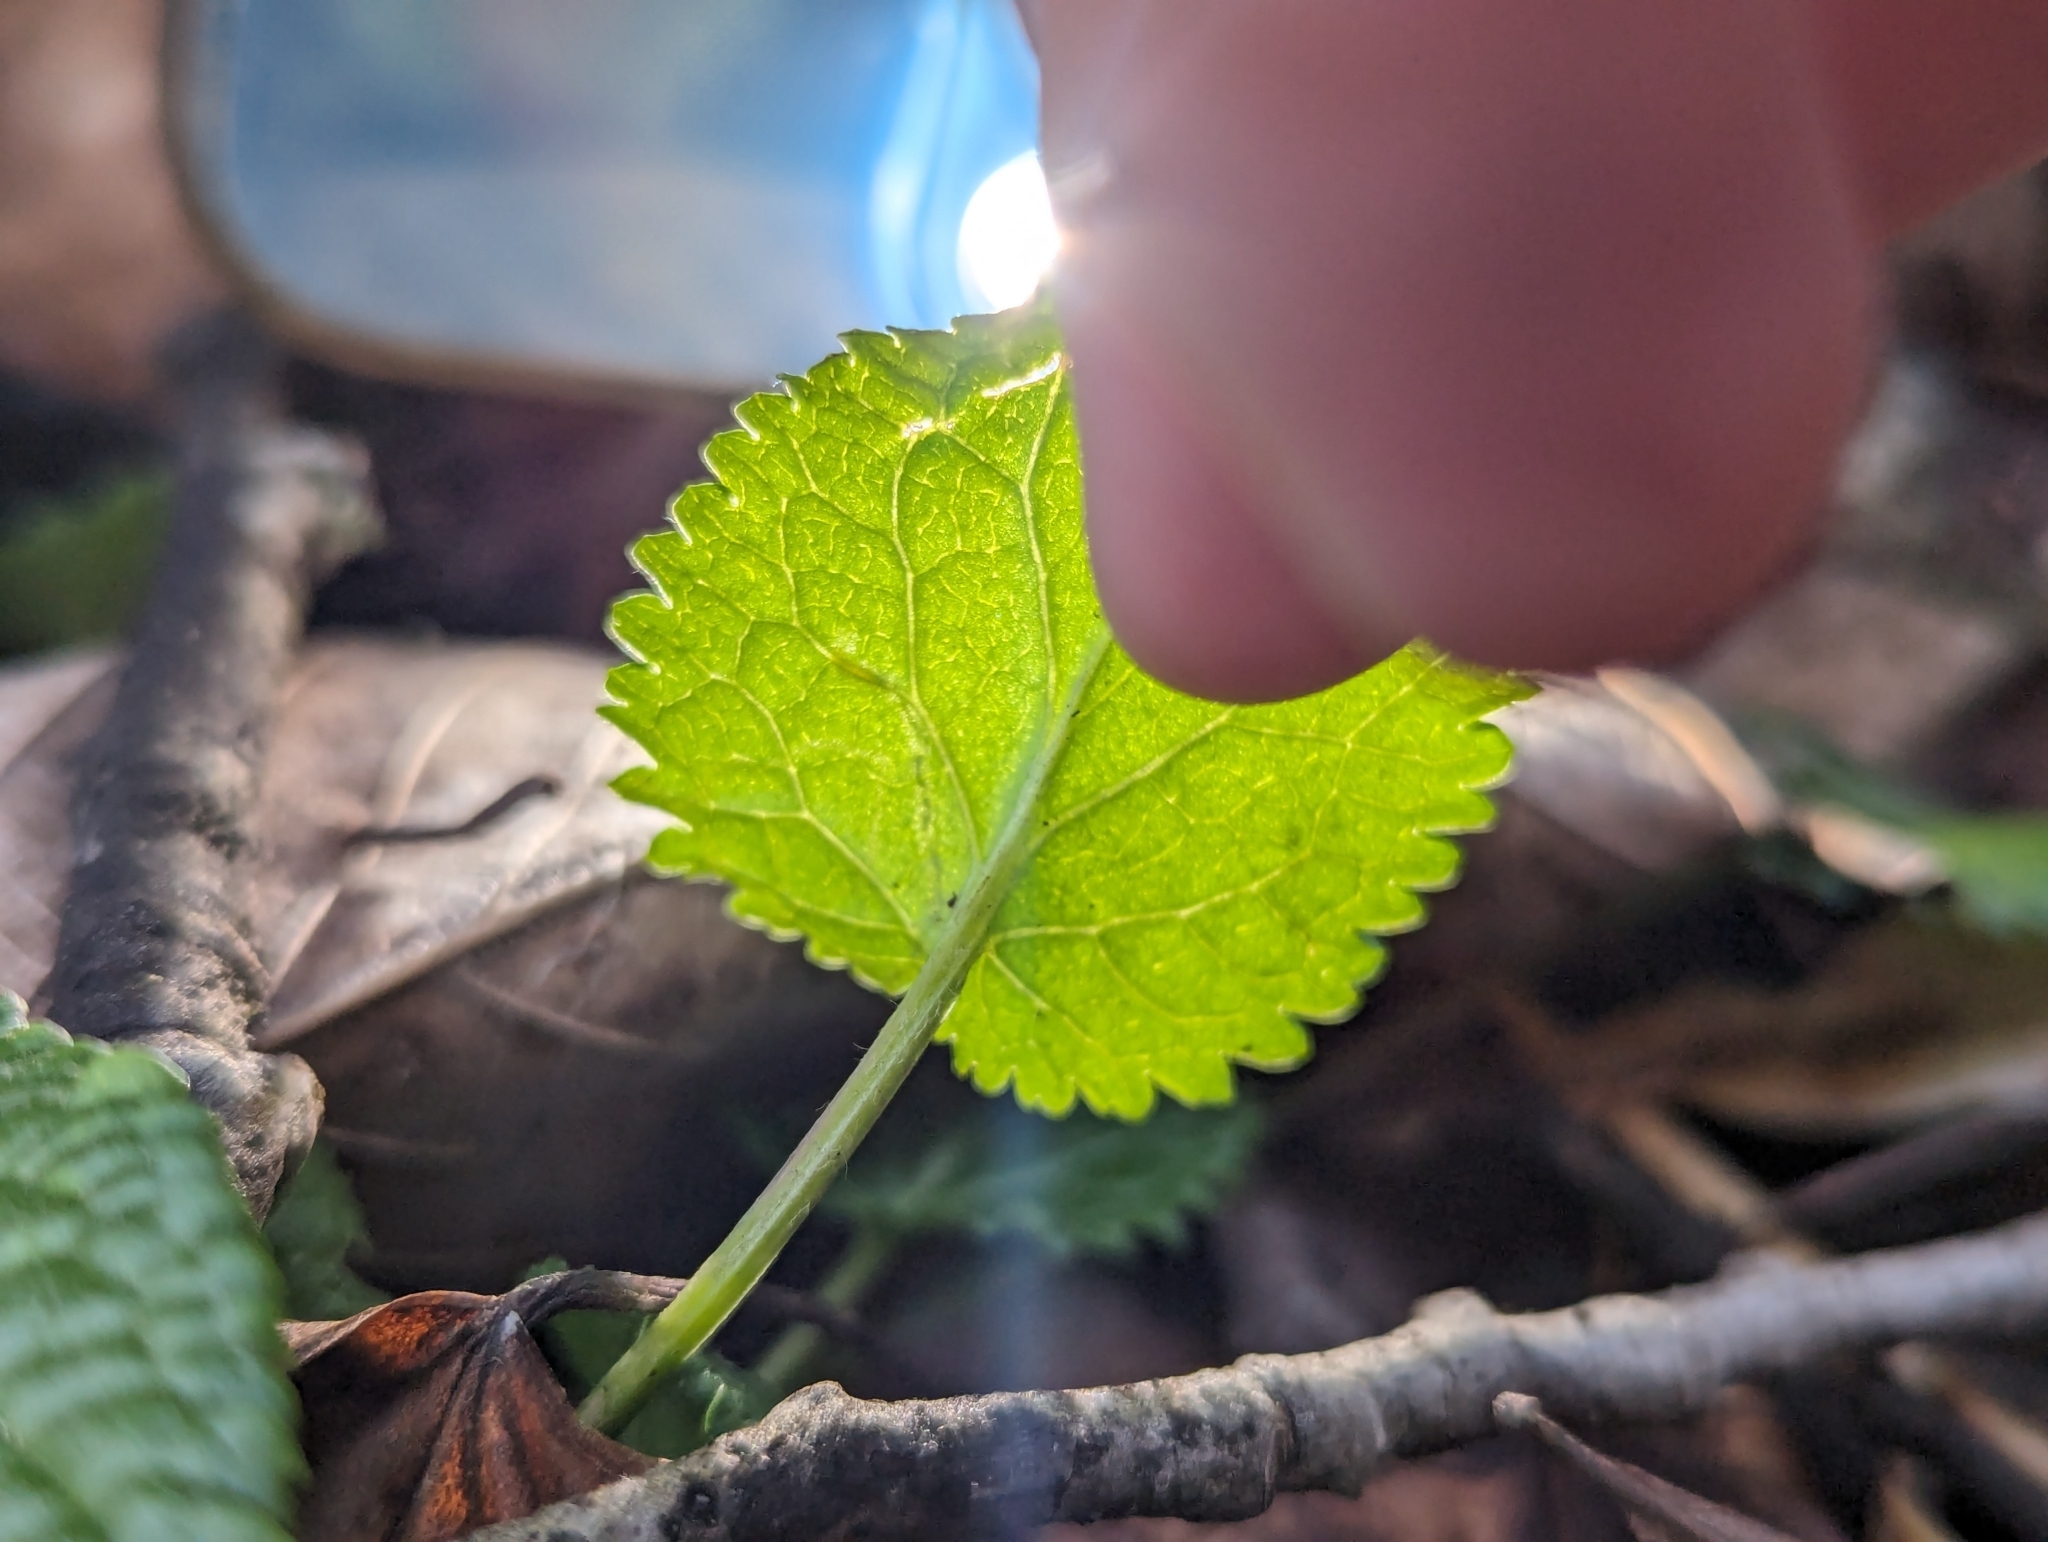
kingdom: Animalia
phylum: Arthropoda
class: Insecta
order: Lepidoptera
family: Gracillariidae
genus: Phyllocnistis
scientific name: Phyllocnistis insignis
